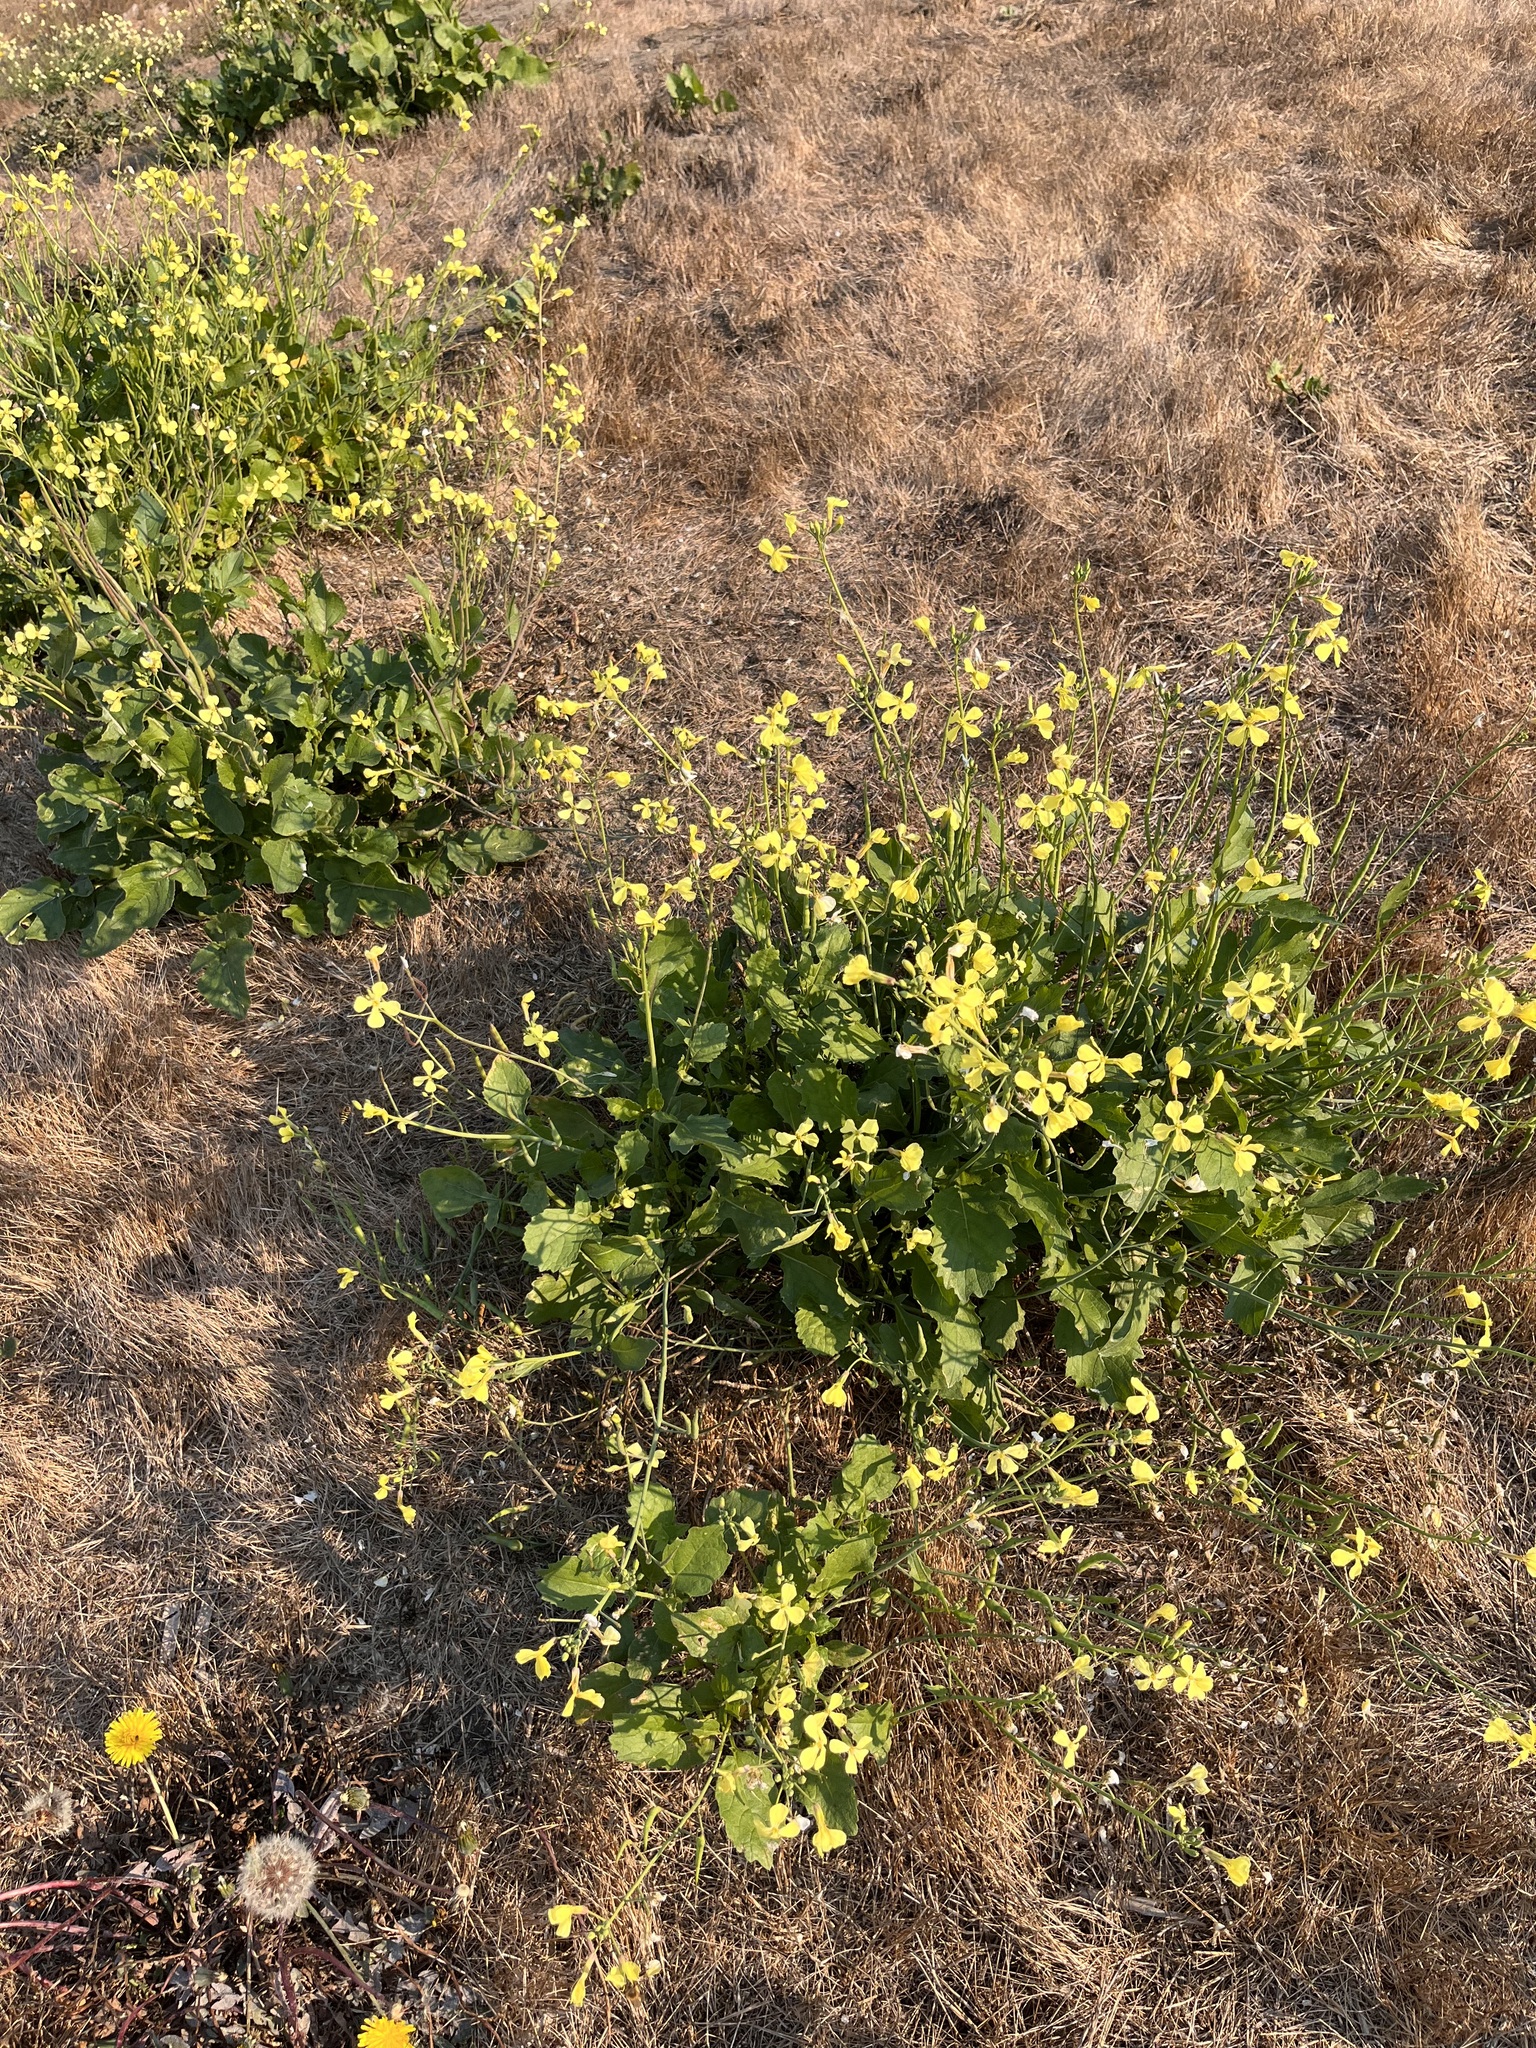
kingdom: Plantae
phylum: Tracheophyta
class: Magnoliopsida
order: Brassicales
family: Brassicaceae
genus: Raphanus
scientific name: Raphanus raphanistrum
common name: Wild radish
